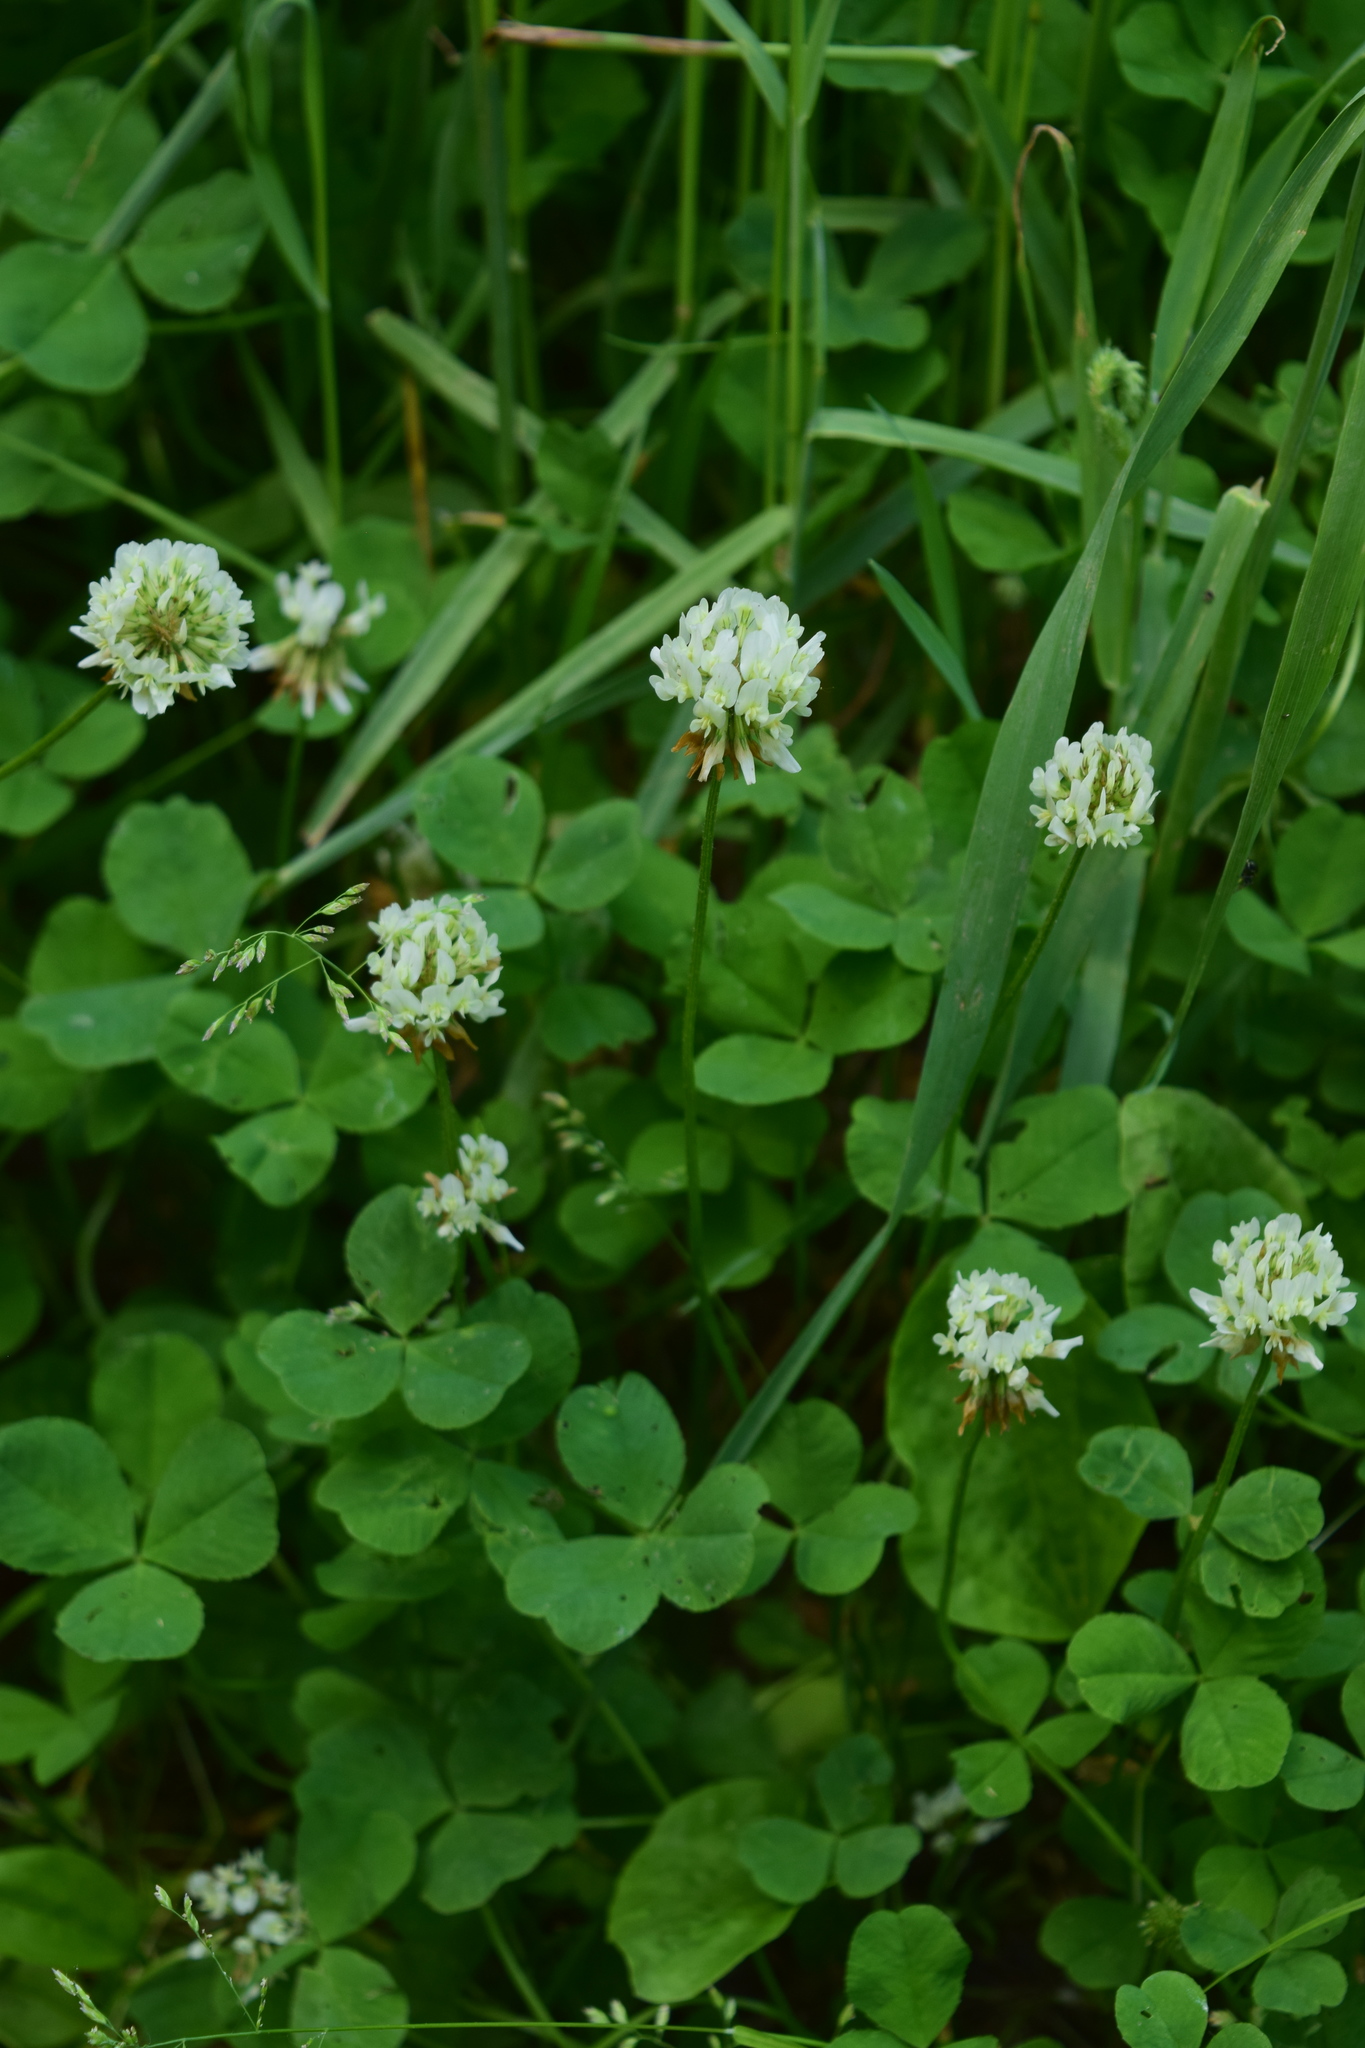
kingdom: Plantae
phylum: Tracheophyta
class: Magnoliopsida
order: Fabales
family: Fabaceae
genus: Trifolium
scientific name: Trifolium repens
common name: White clover
